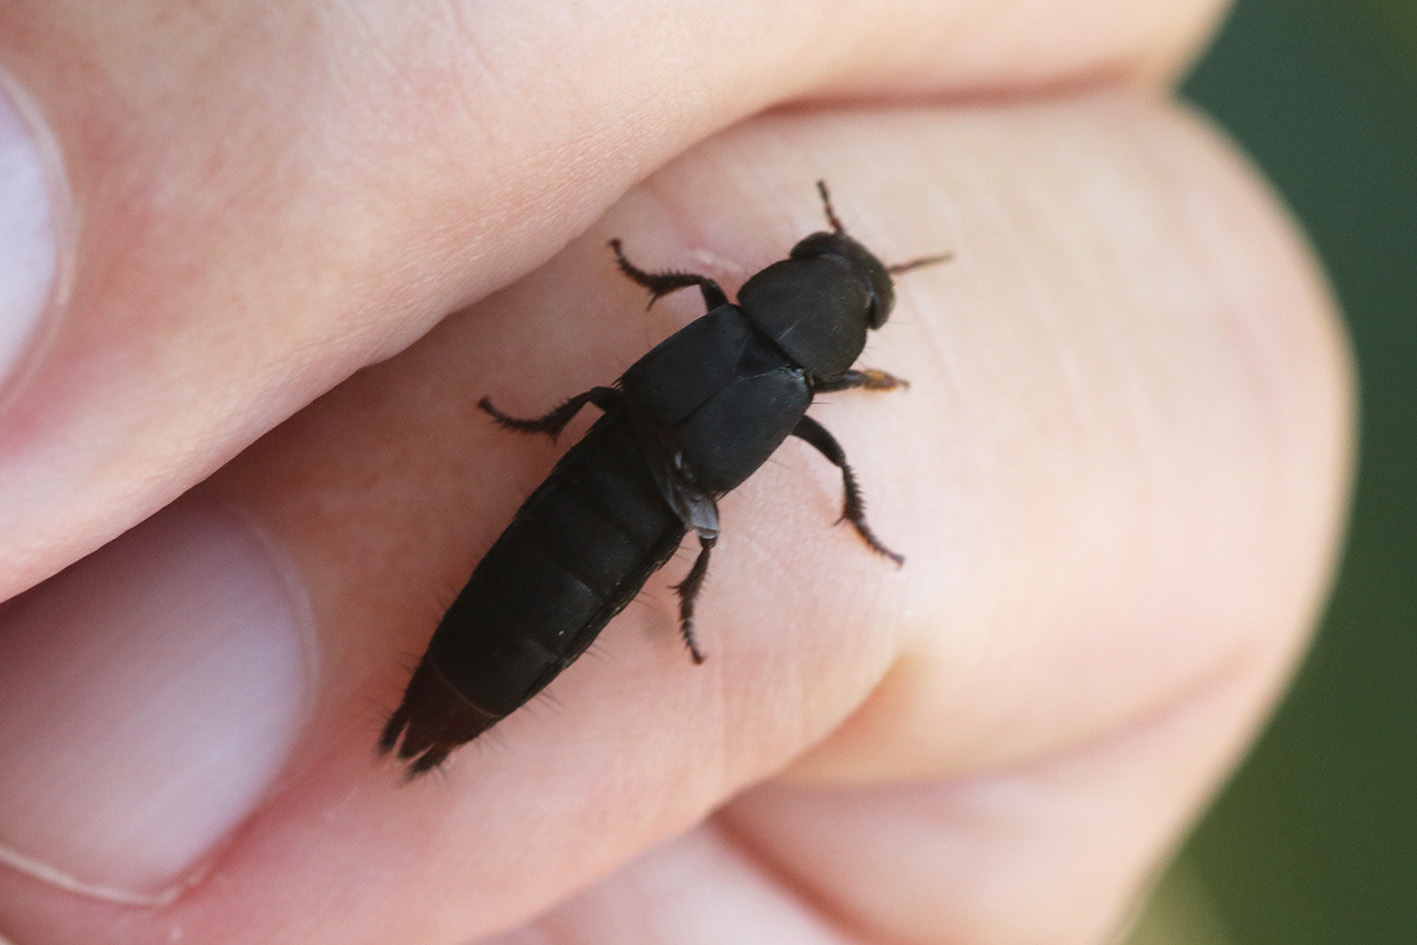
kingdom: Animalia
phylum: Arthropoda
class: Insecta
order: Coleoptera
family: Staphylinidae
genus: Platydracus
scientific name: Platydracus scabrosus
